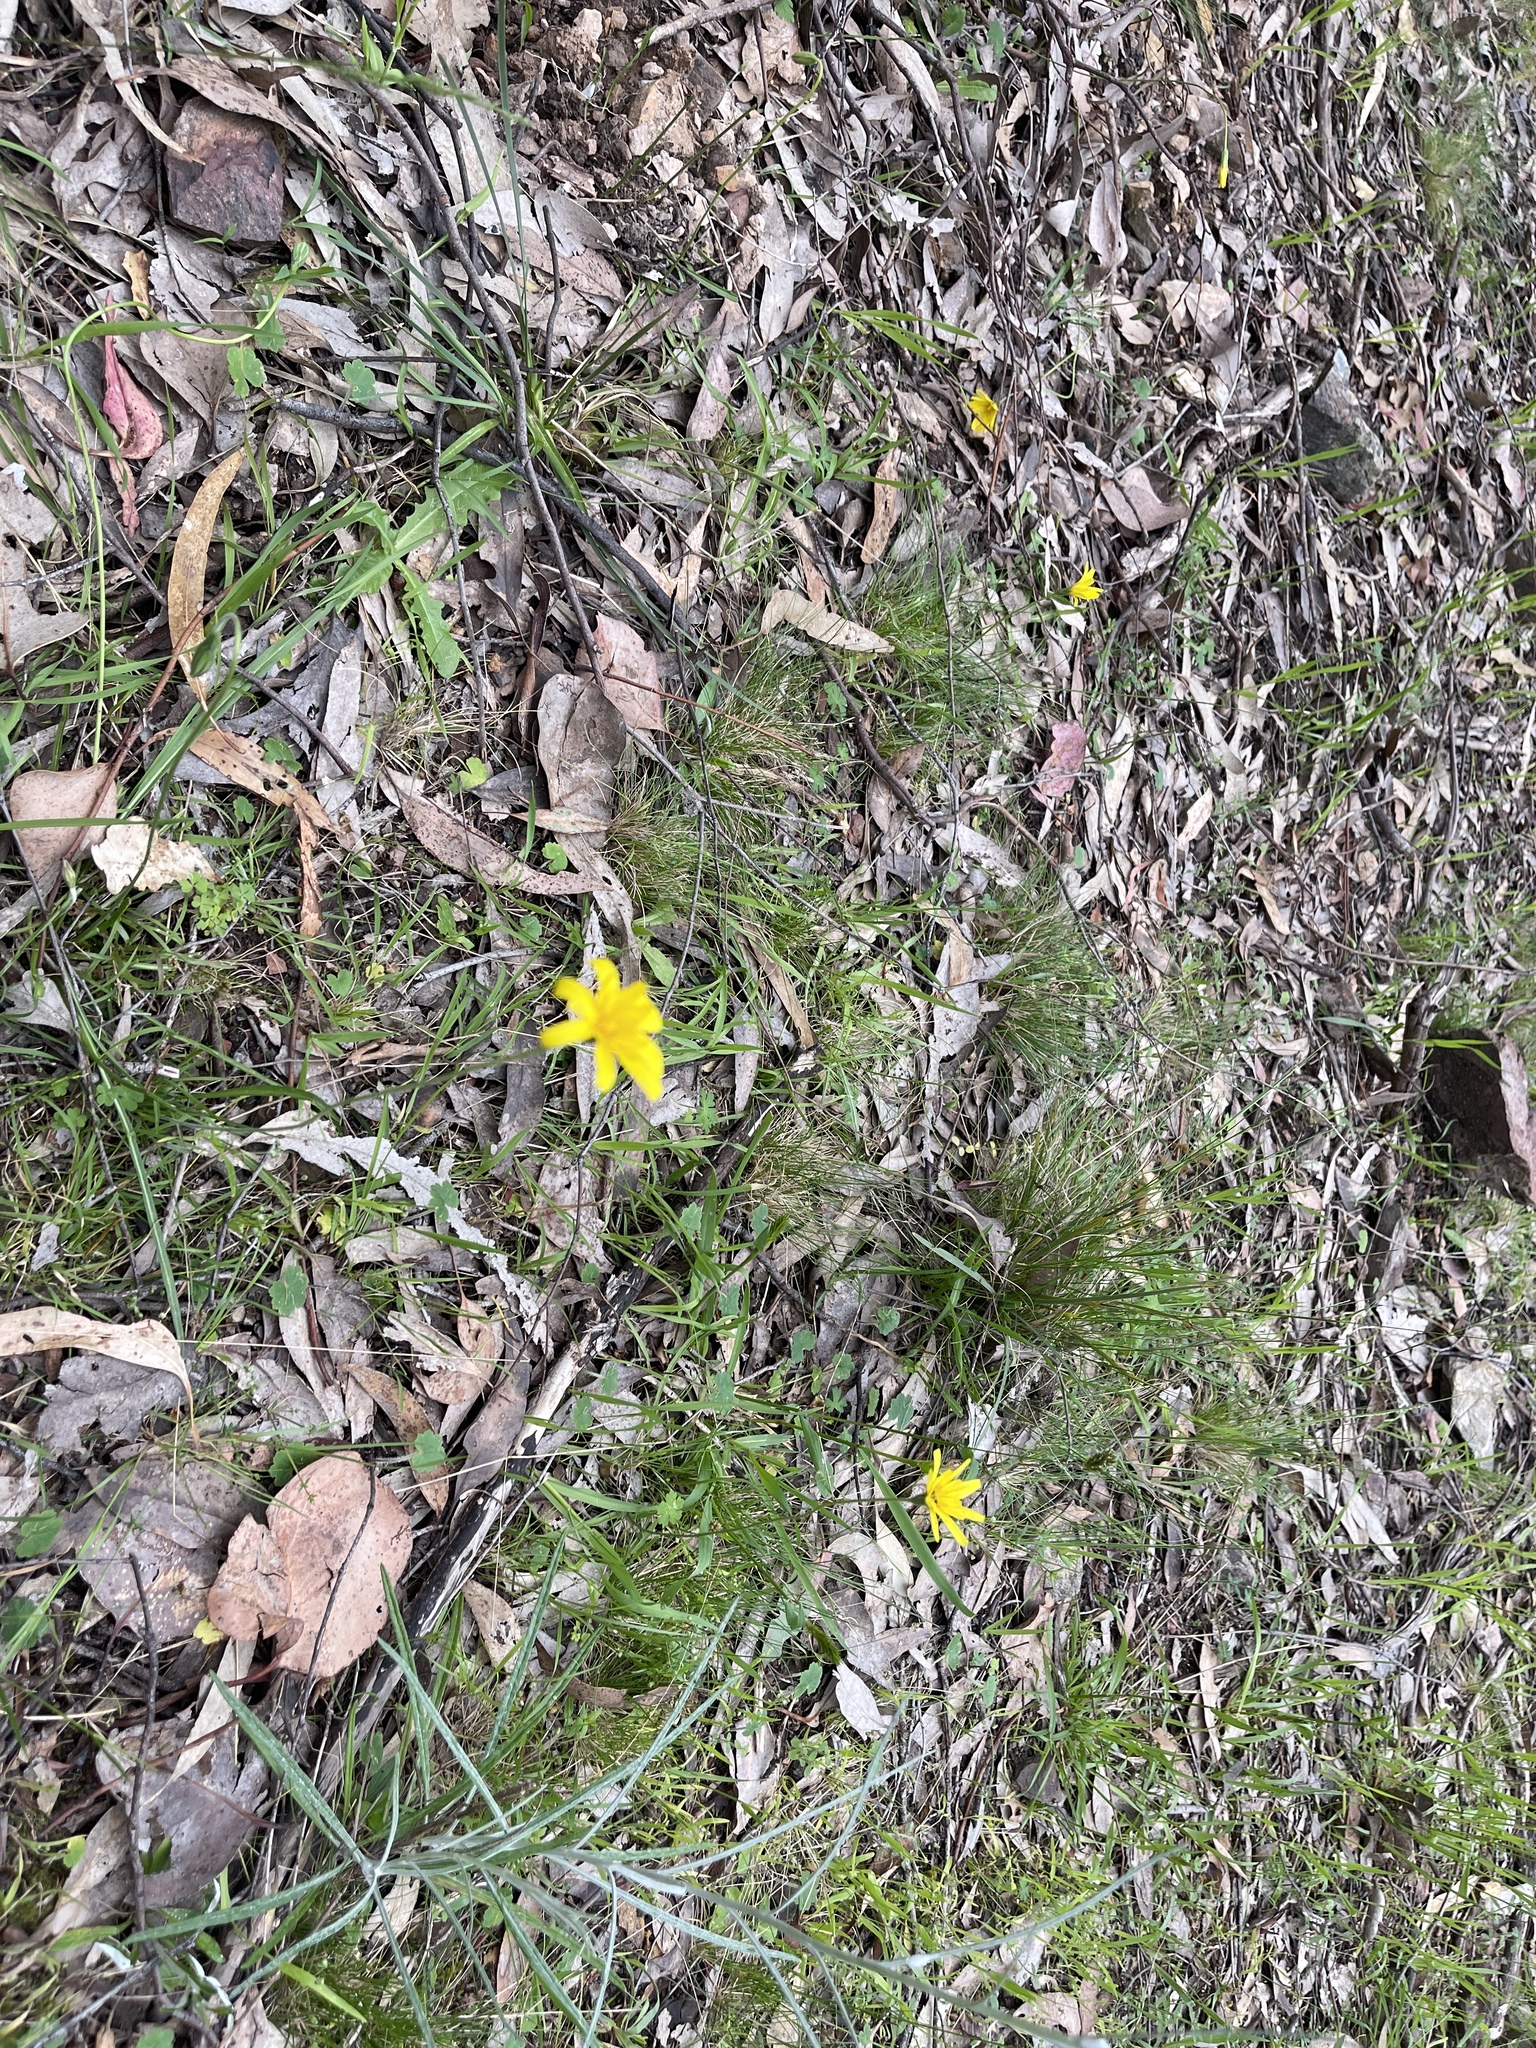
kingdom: Plantae
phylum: Tracheophyta
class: Magnoliopsida
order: Asterales
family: Asteraceae
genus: Microseris
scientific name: Microseris lanceolata
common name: Yam daisy
